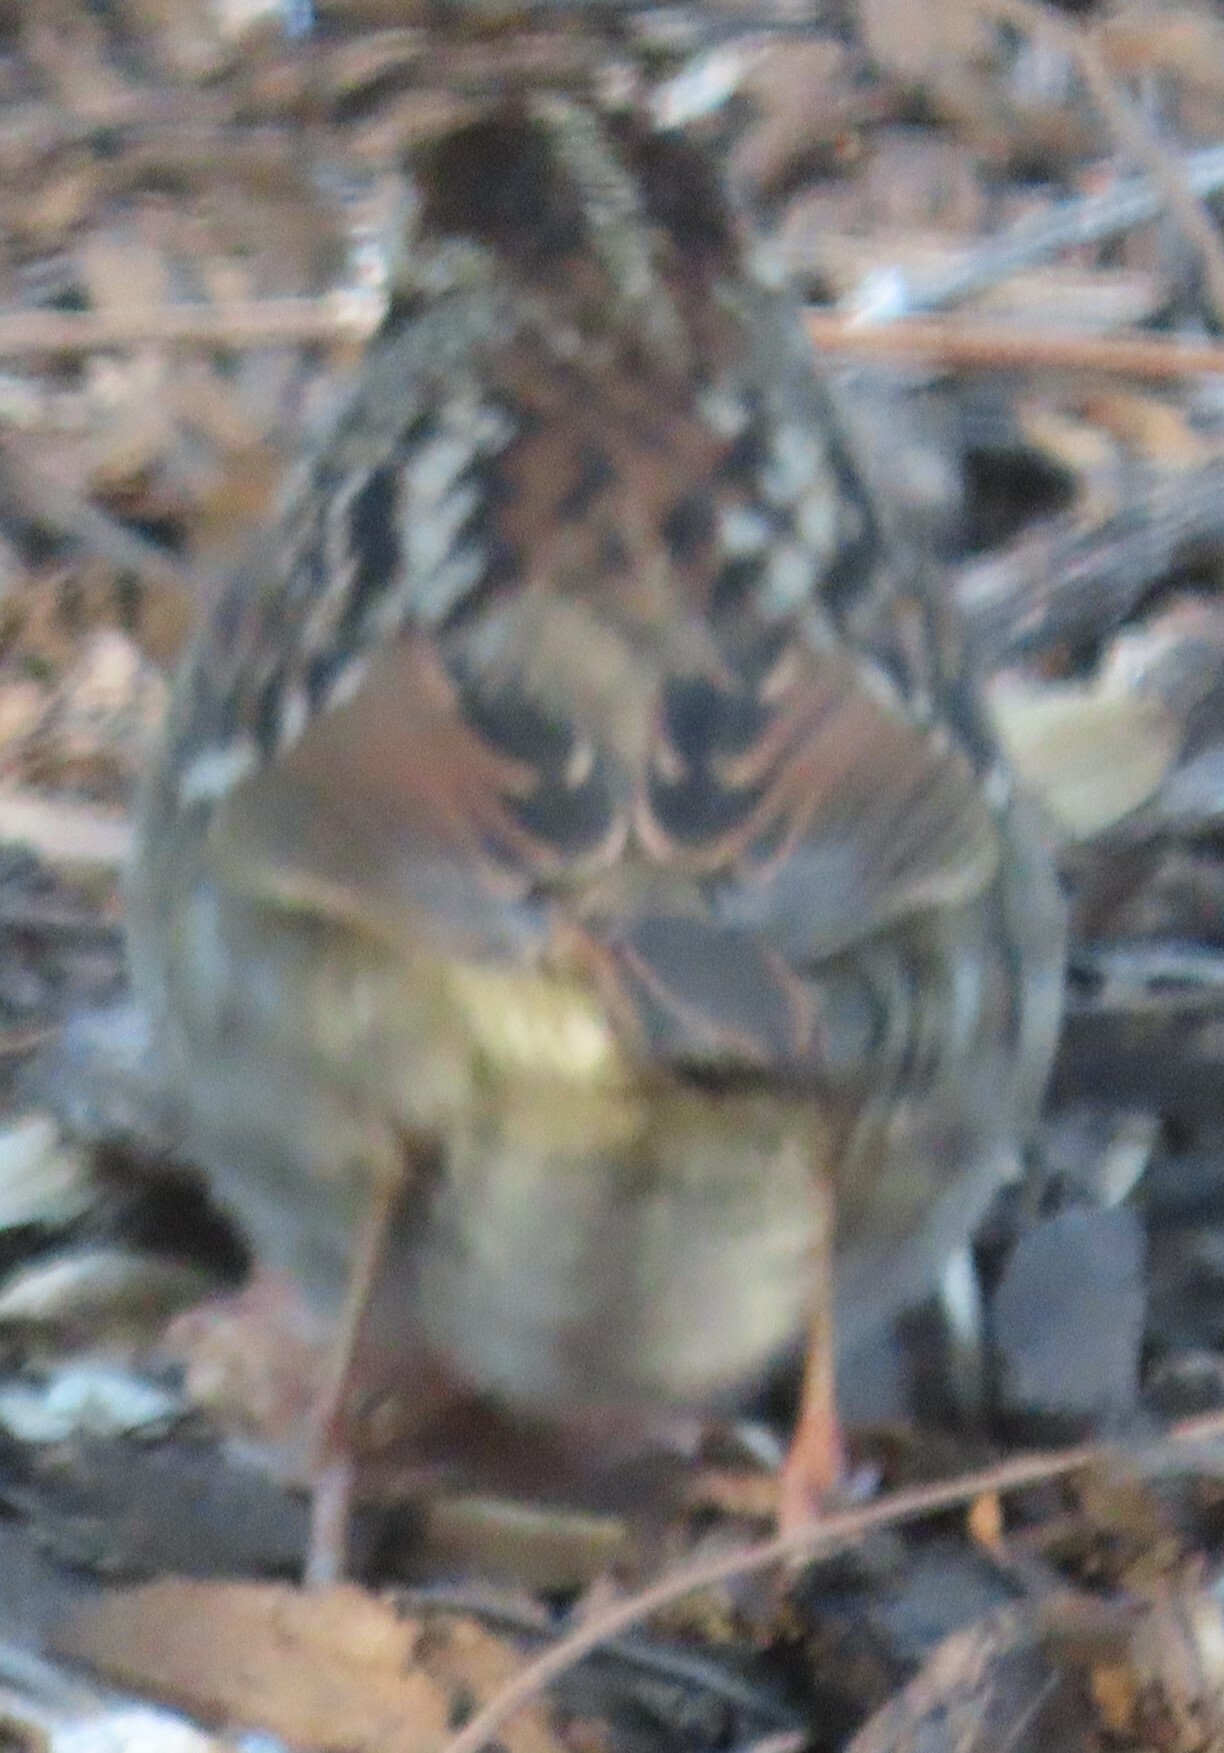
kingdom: Animalia
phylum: Chordata
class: Aves
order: Passeriformes
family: Passerellidae
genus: Zonotrichia
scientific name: Zonotrichia albicollis
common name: White-throated sparrow
